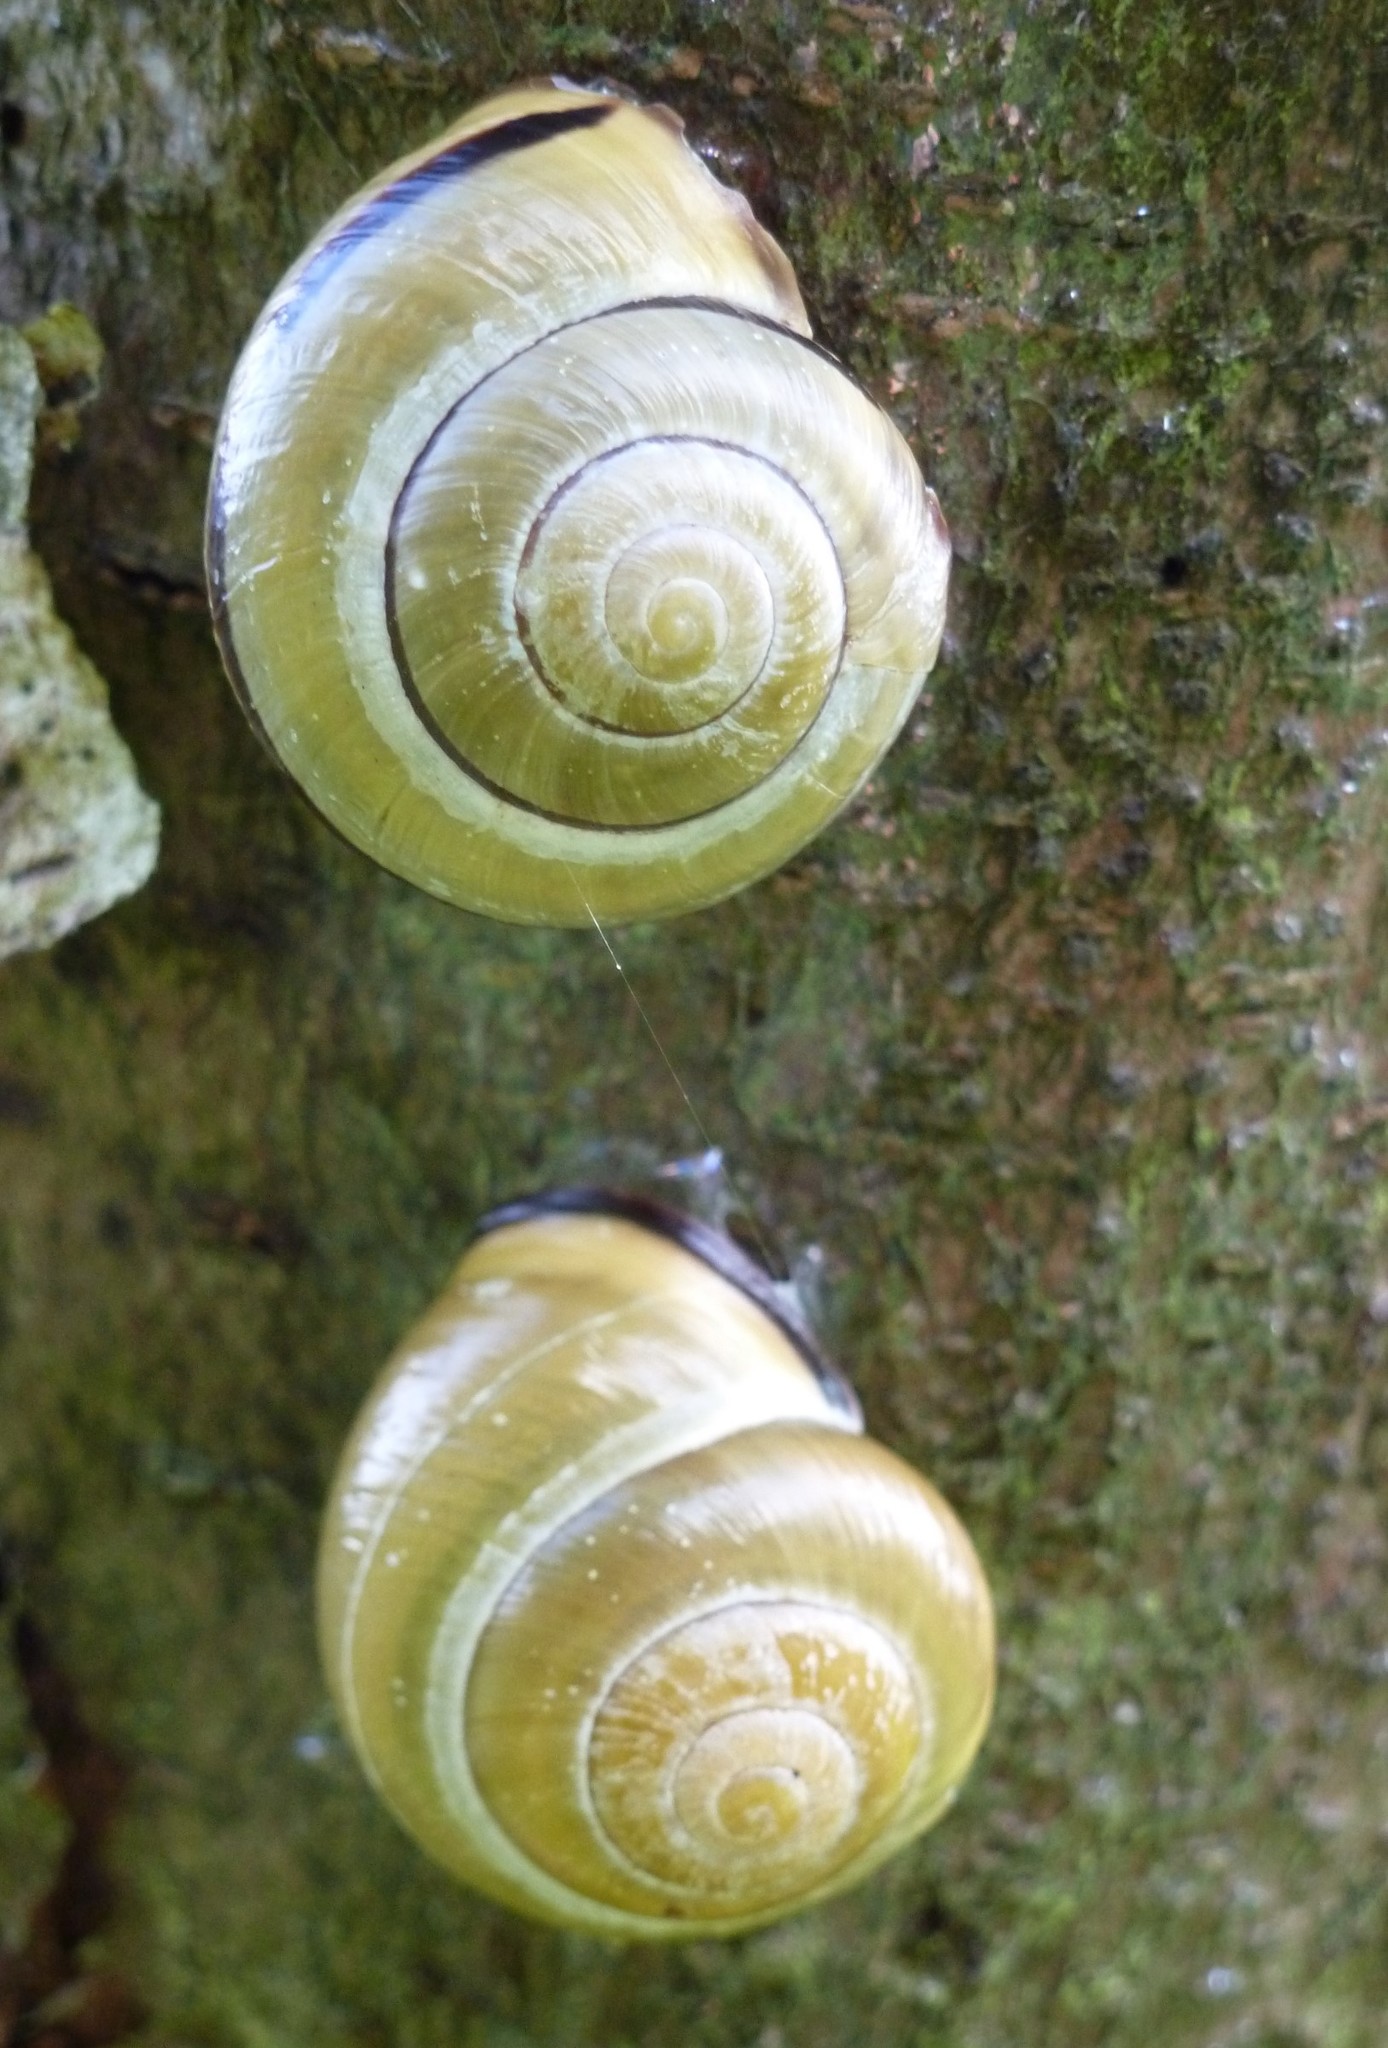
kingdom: Animalia
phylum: Mollusca
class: Gastropoda
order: Stylommatophora
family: Helicidae
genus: Cepaea
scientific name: Cepaea nemoralis
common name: Grovesnail
